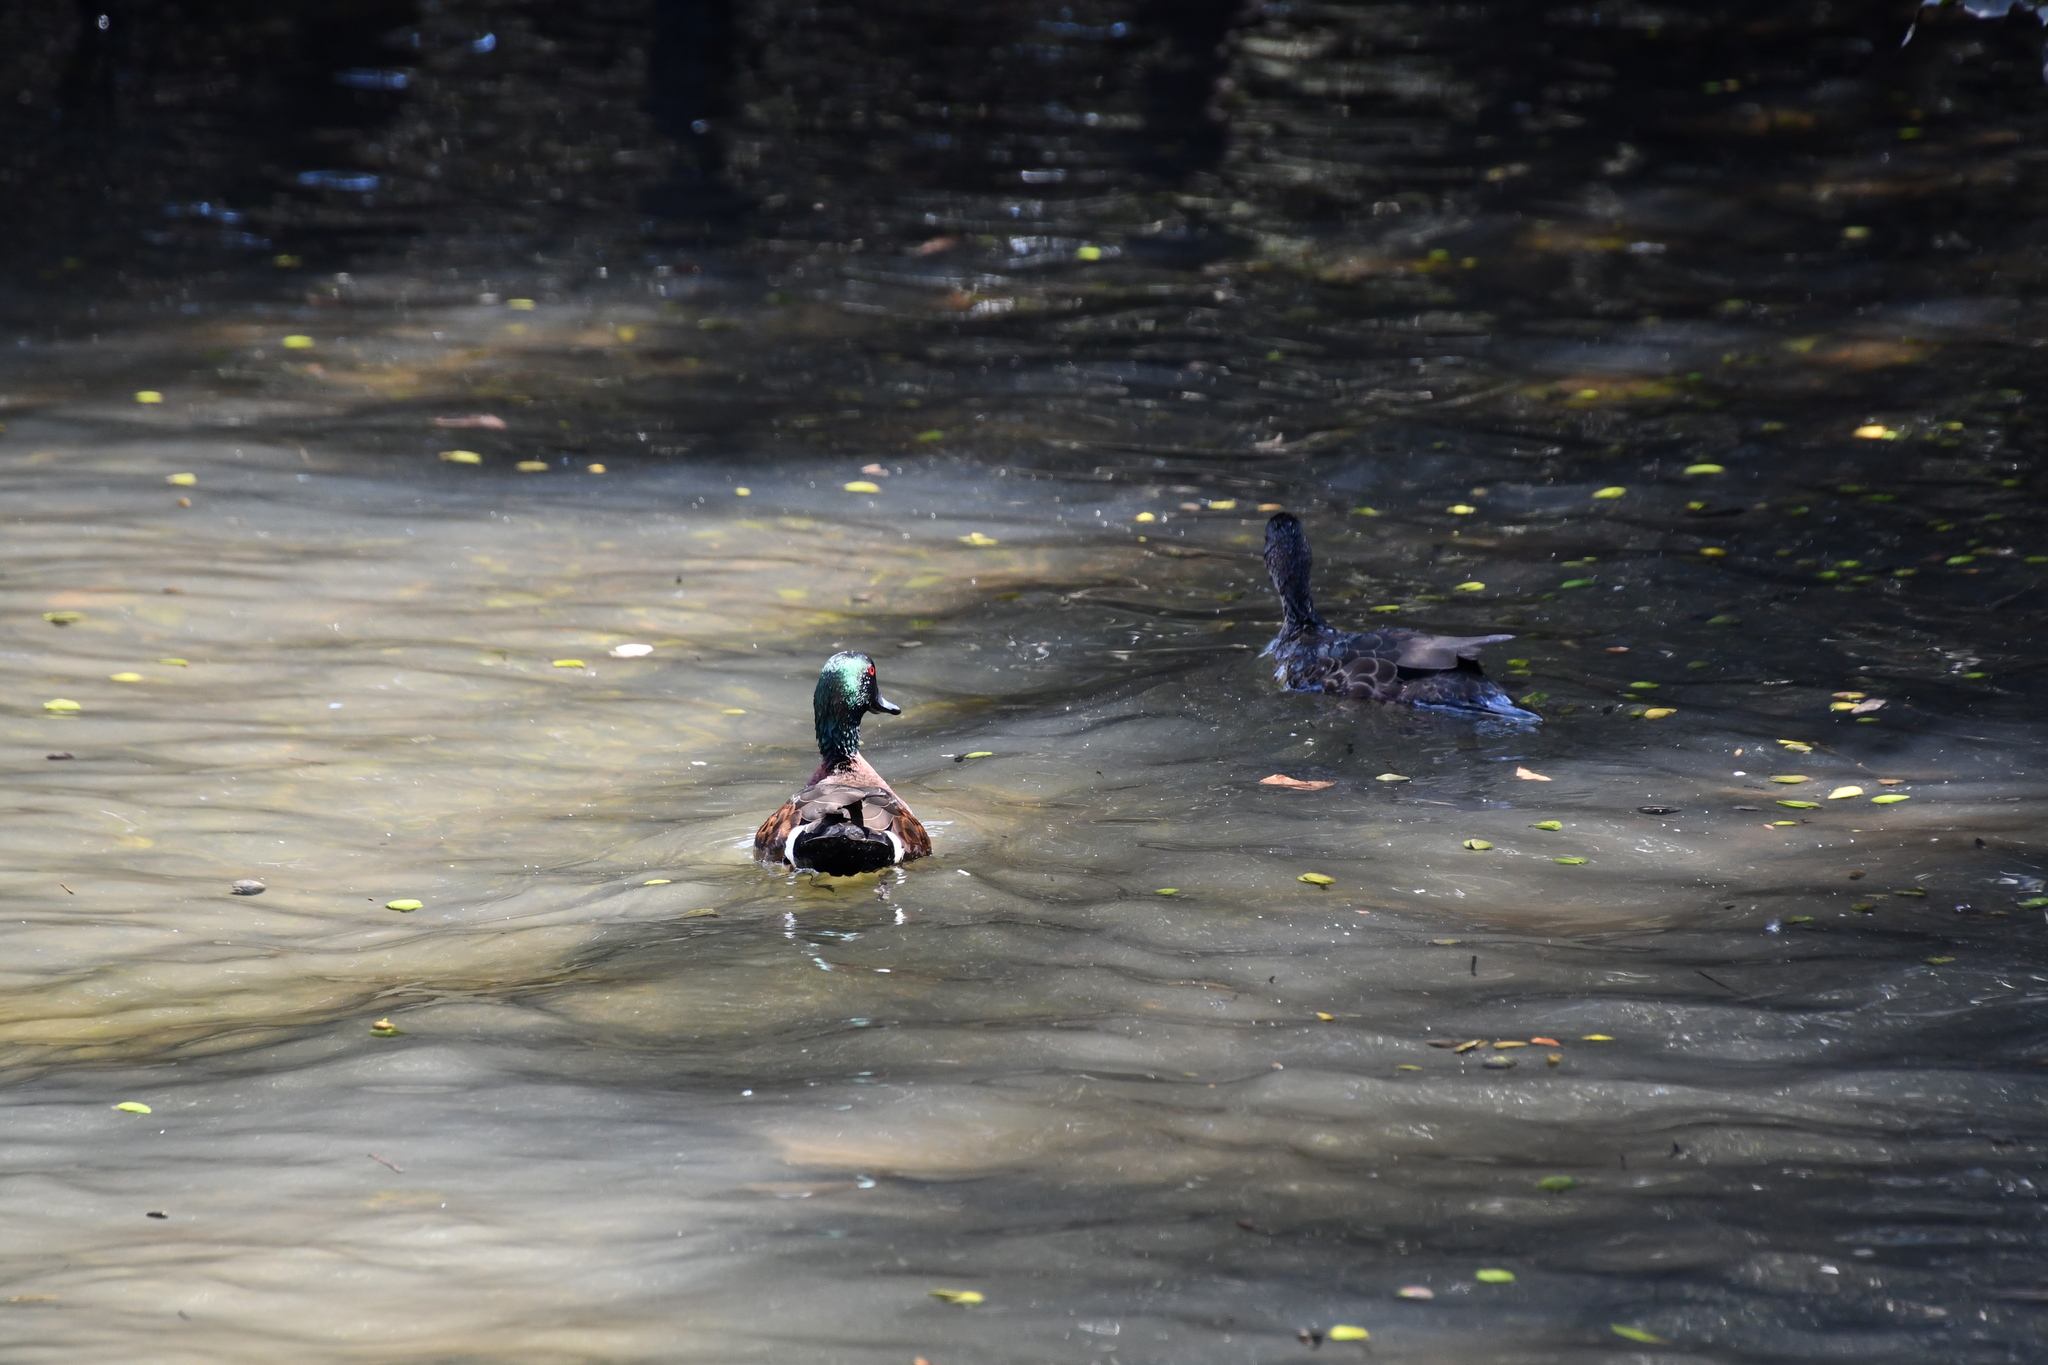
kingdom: Animalia
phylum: Chordata
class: Aves
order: Anseriformes
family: Anatidae
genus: Anas
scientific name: Anas castanea
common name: Chestnut teal
